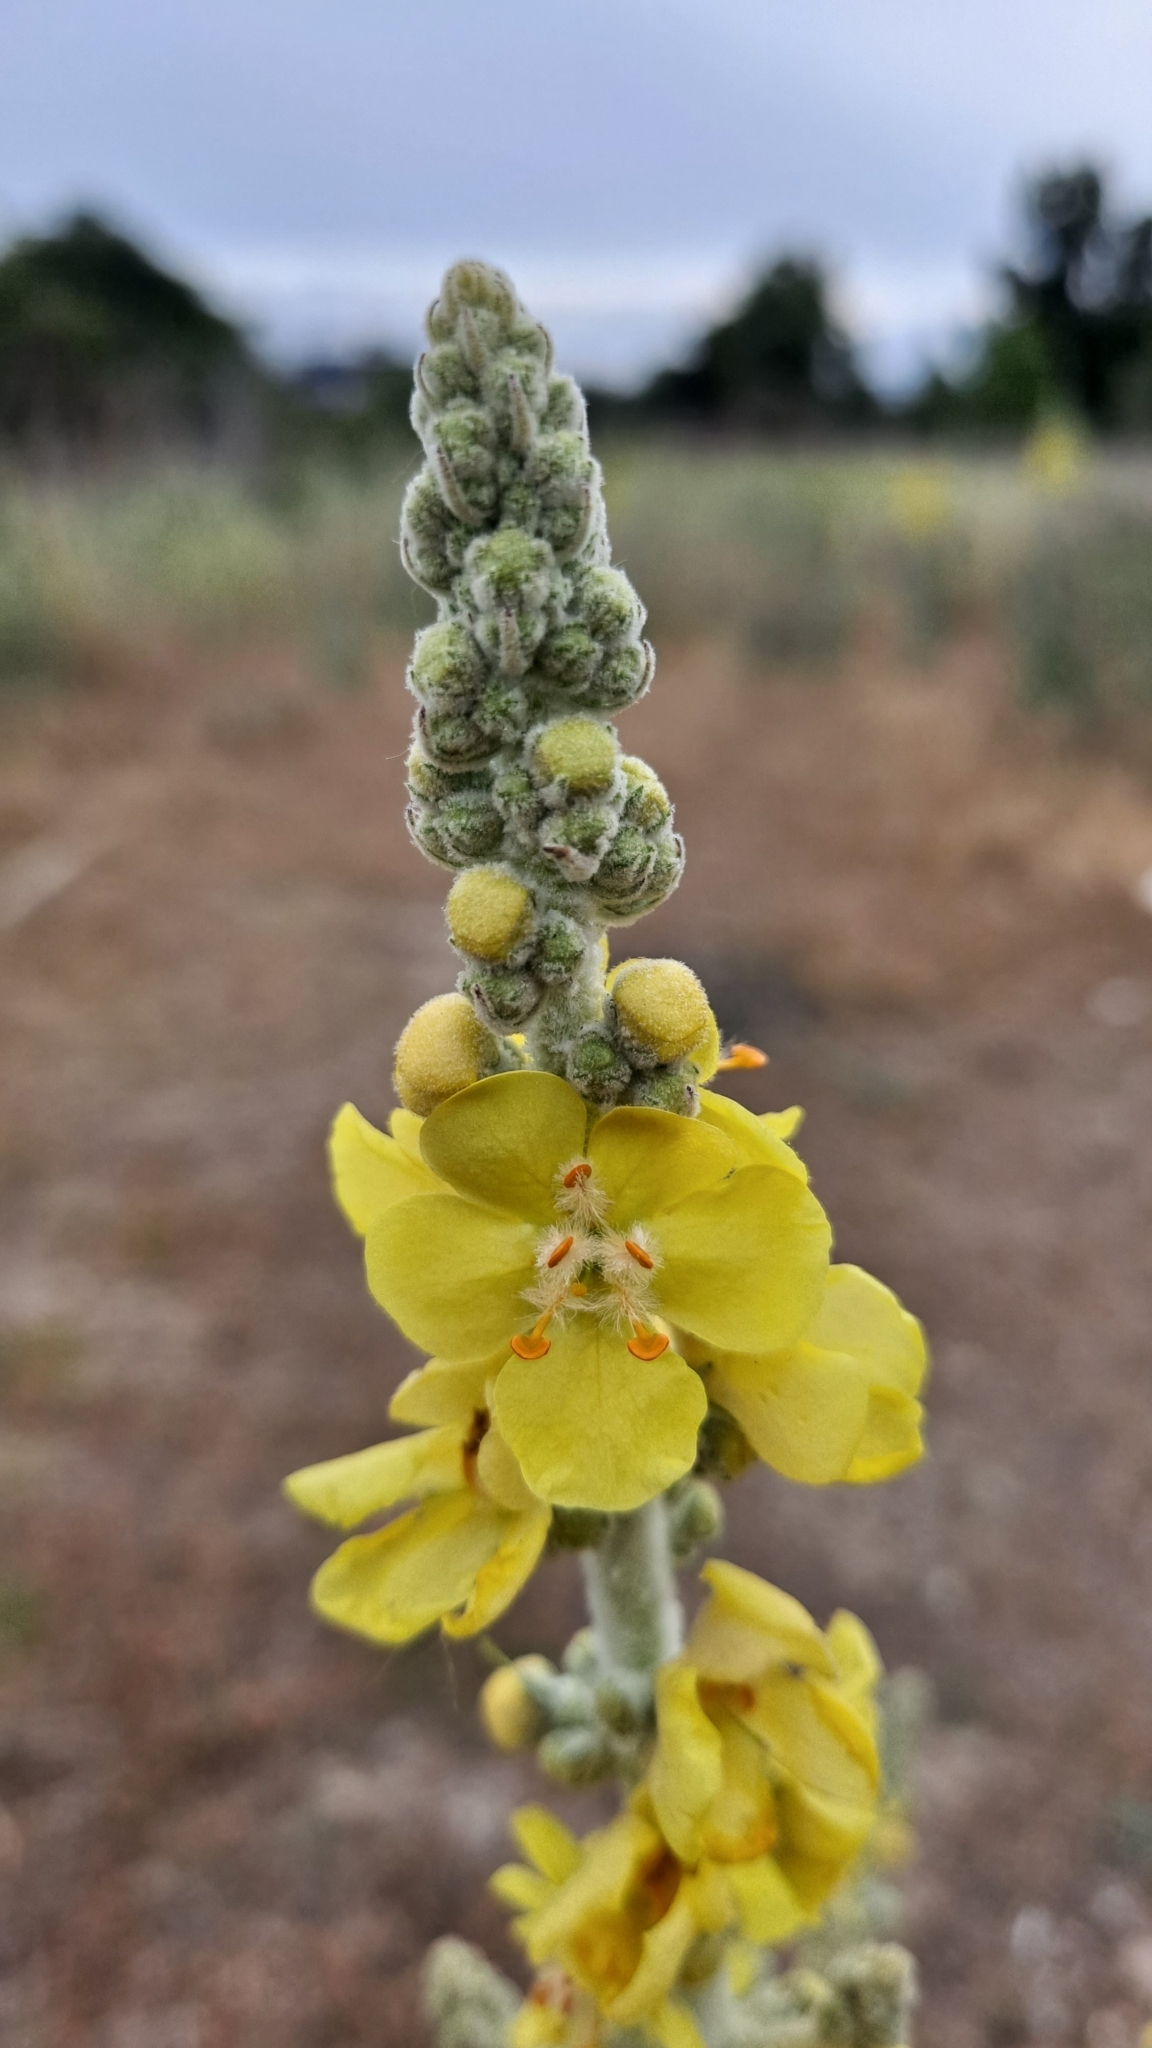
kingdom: Plantae
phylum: Tracheophyta
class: Magnoliopsida
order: Lamiales
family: Scrophulariaceae
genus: Verbascum
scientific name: Verbascum pulverulentum
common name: Broad-leaf mullein
